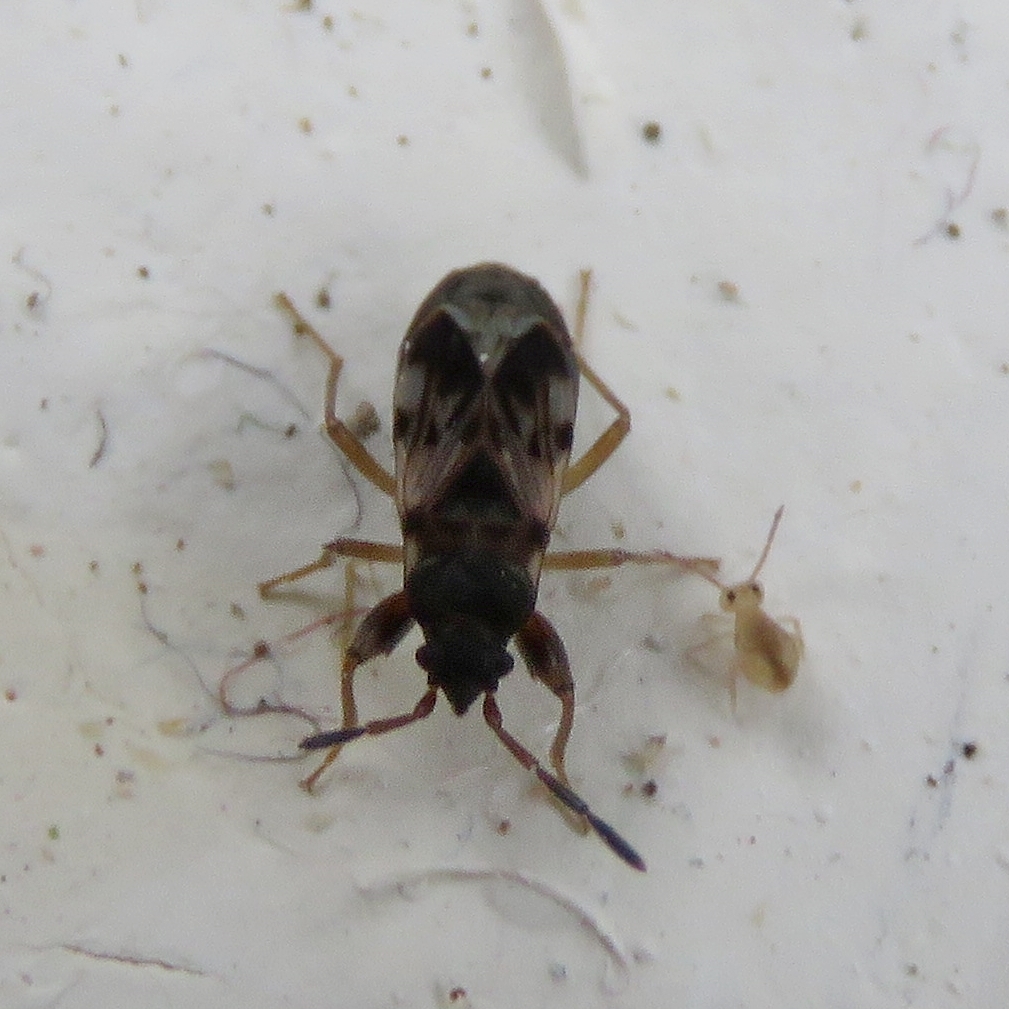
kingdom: Animalia
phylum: Arthropoda
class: Insecta
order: Hemiptera
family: Rhyparochromidae
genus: Scolopostethus
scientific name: Scolopostethus
